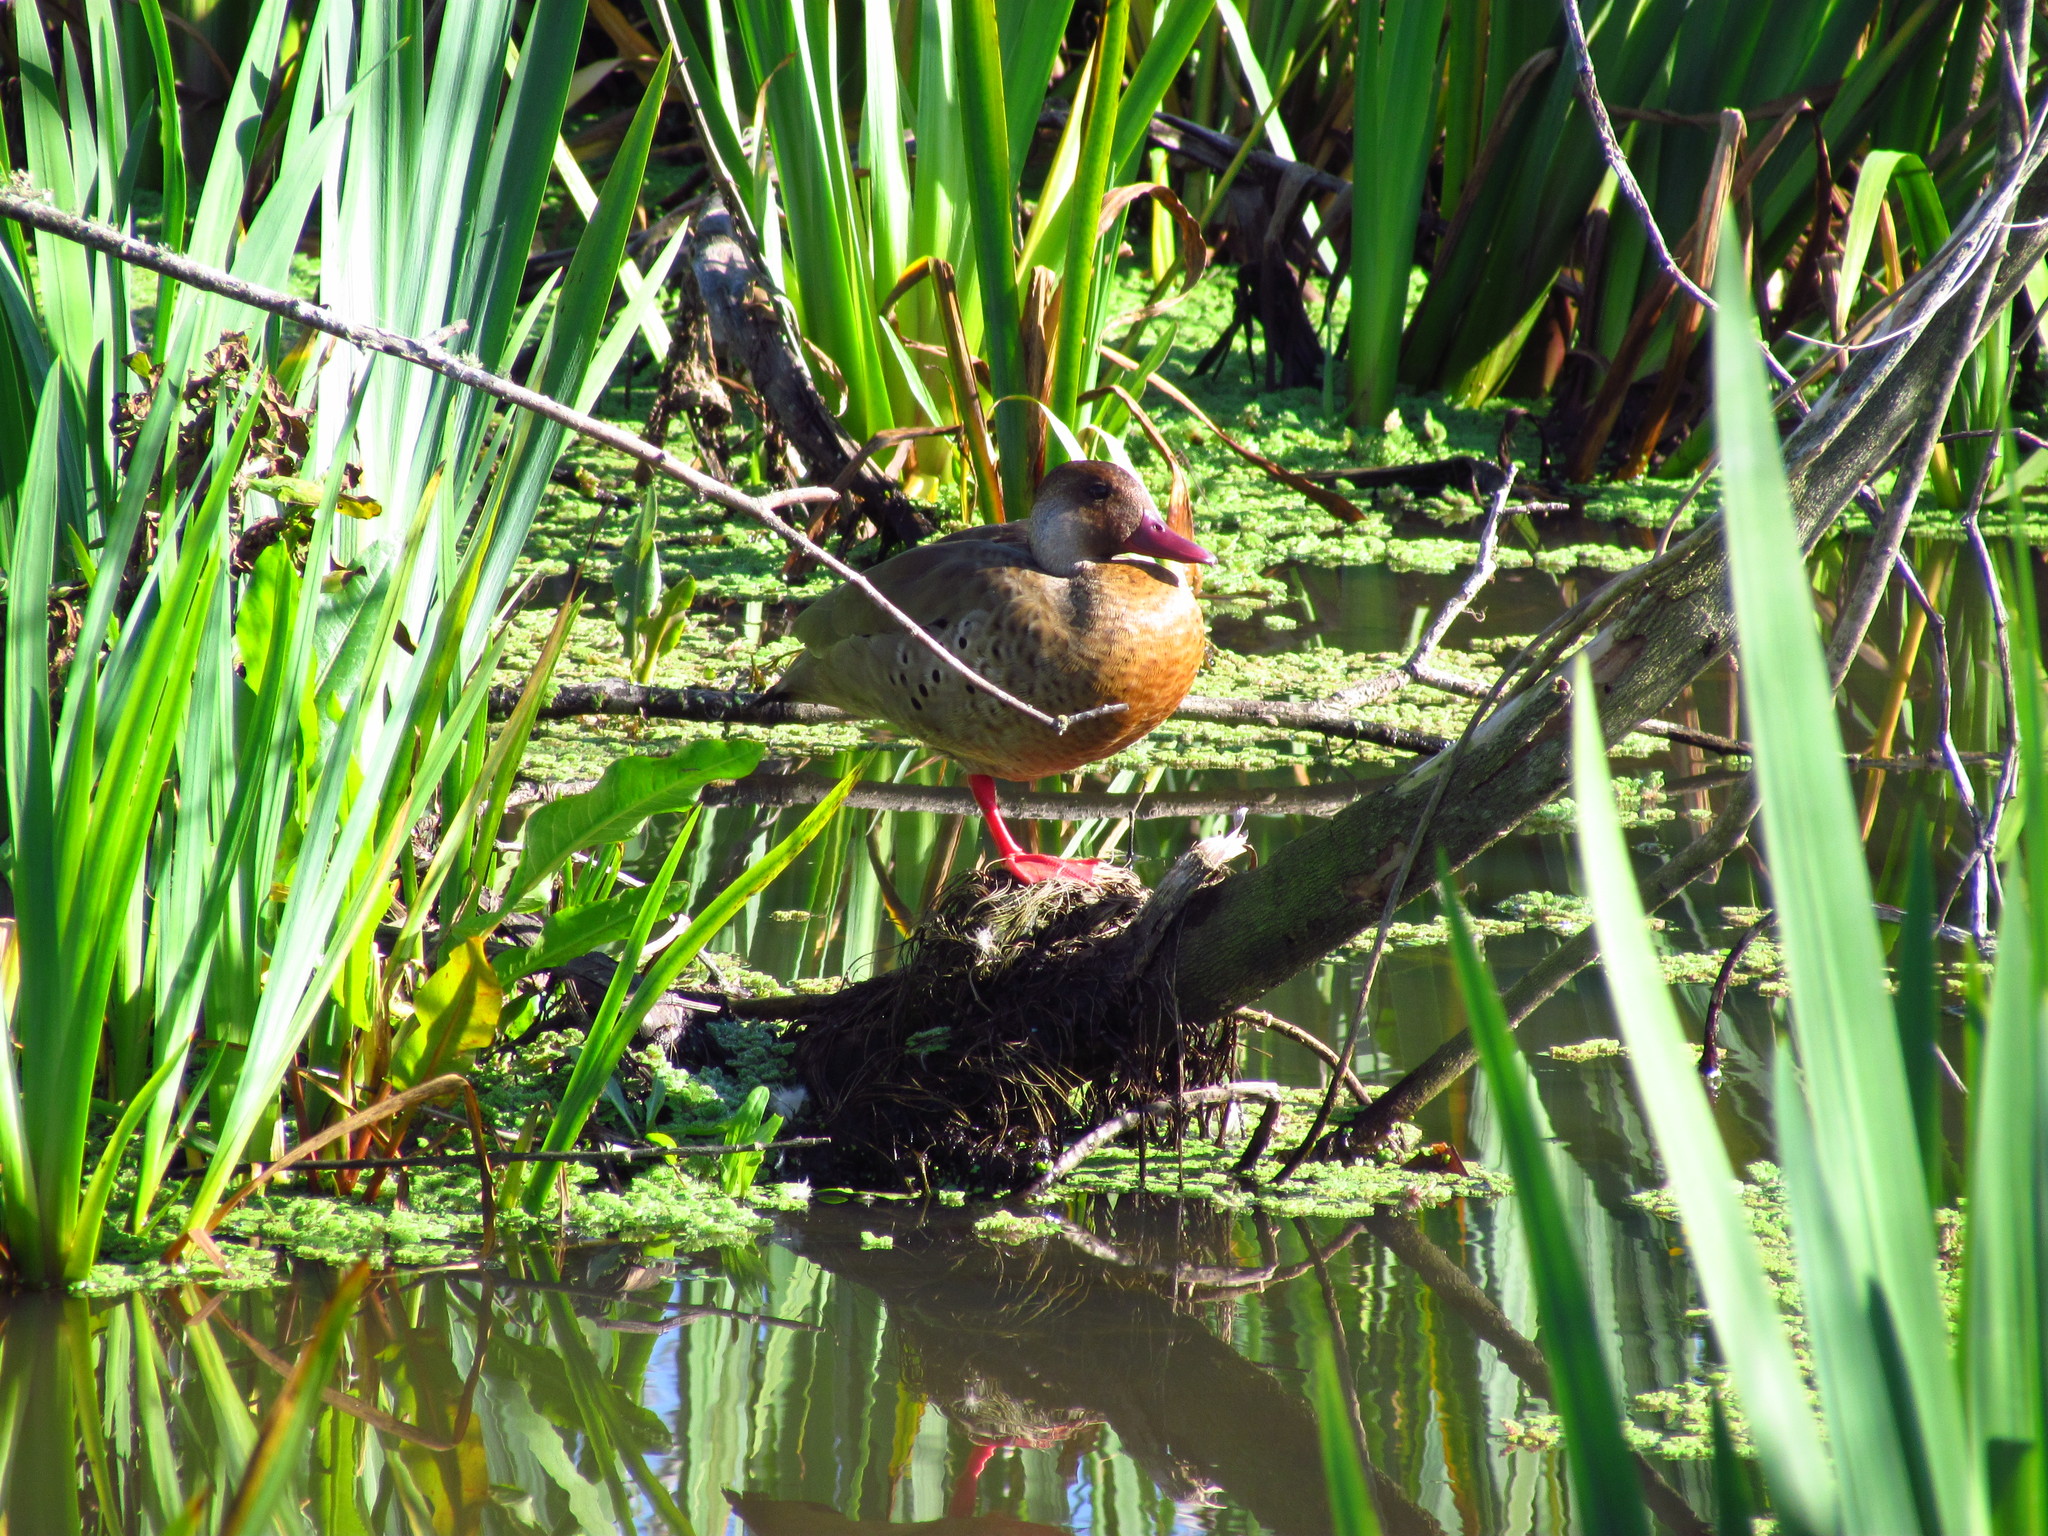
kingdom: Animalia
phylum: Chordata
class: Aves
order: Anseriformes
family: Anatidae
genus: Amazonetta
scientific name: Amazonetta brasiliensis
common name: Brazilian teal
